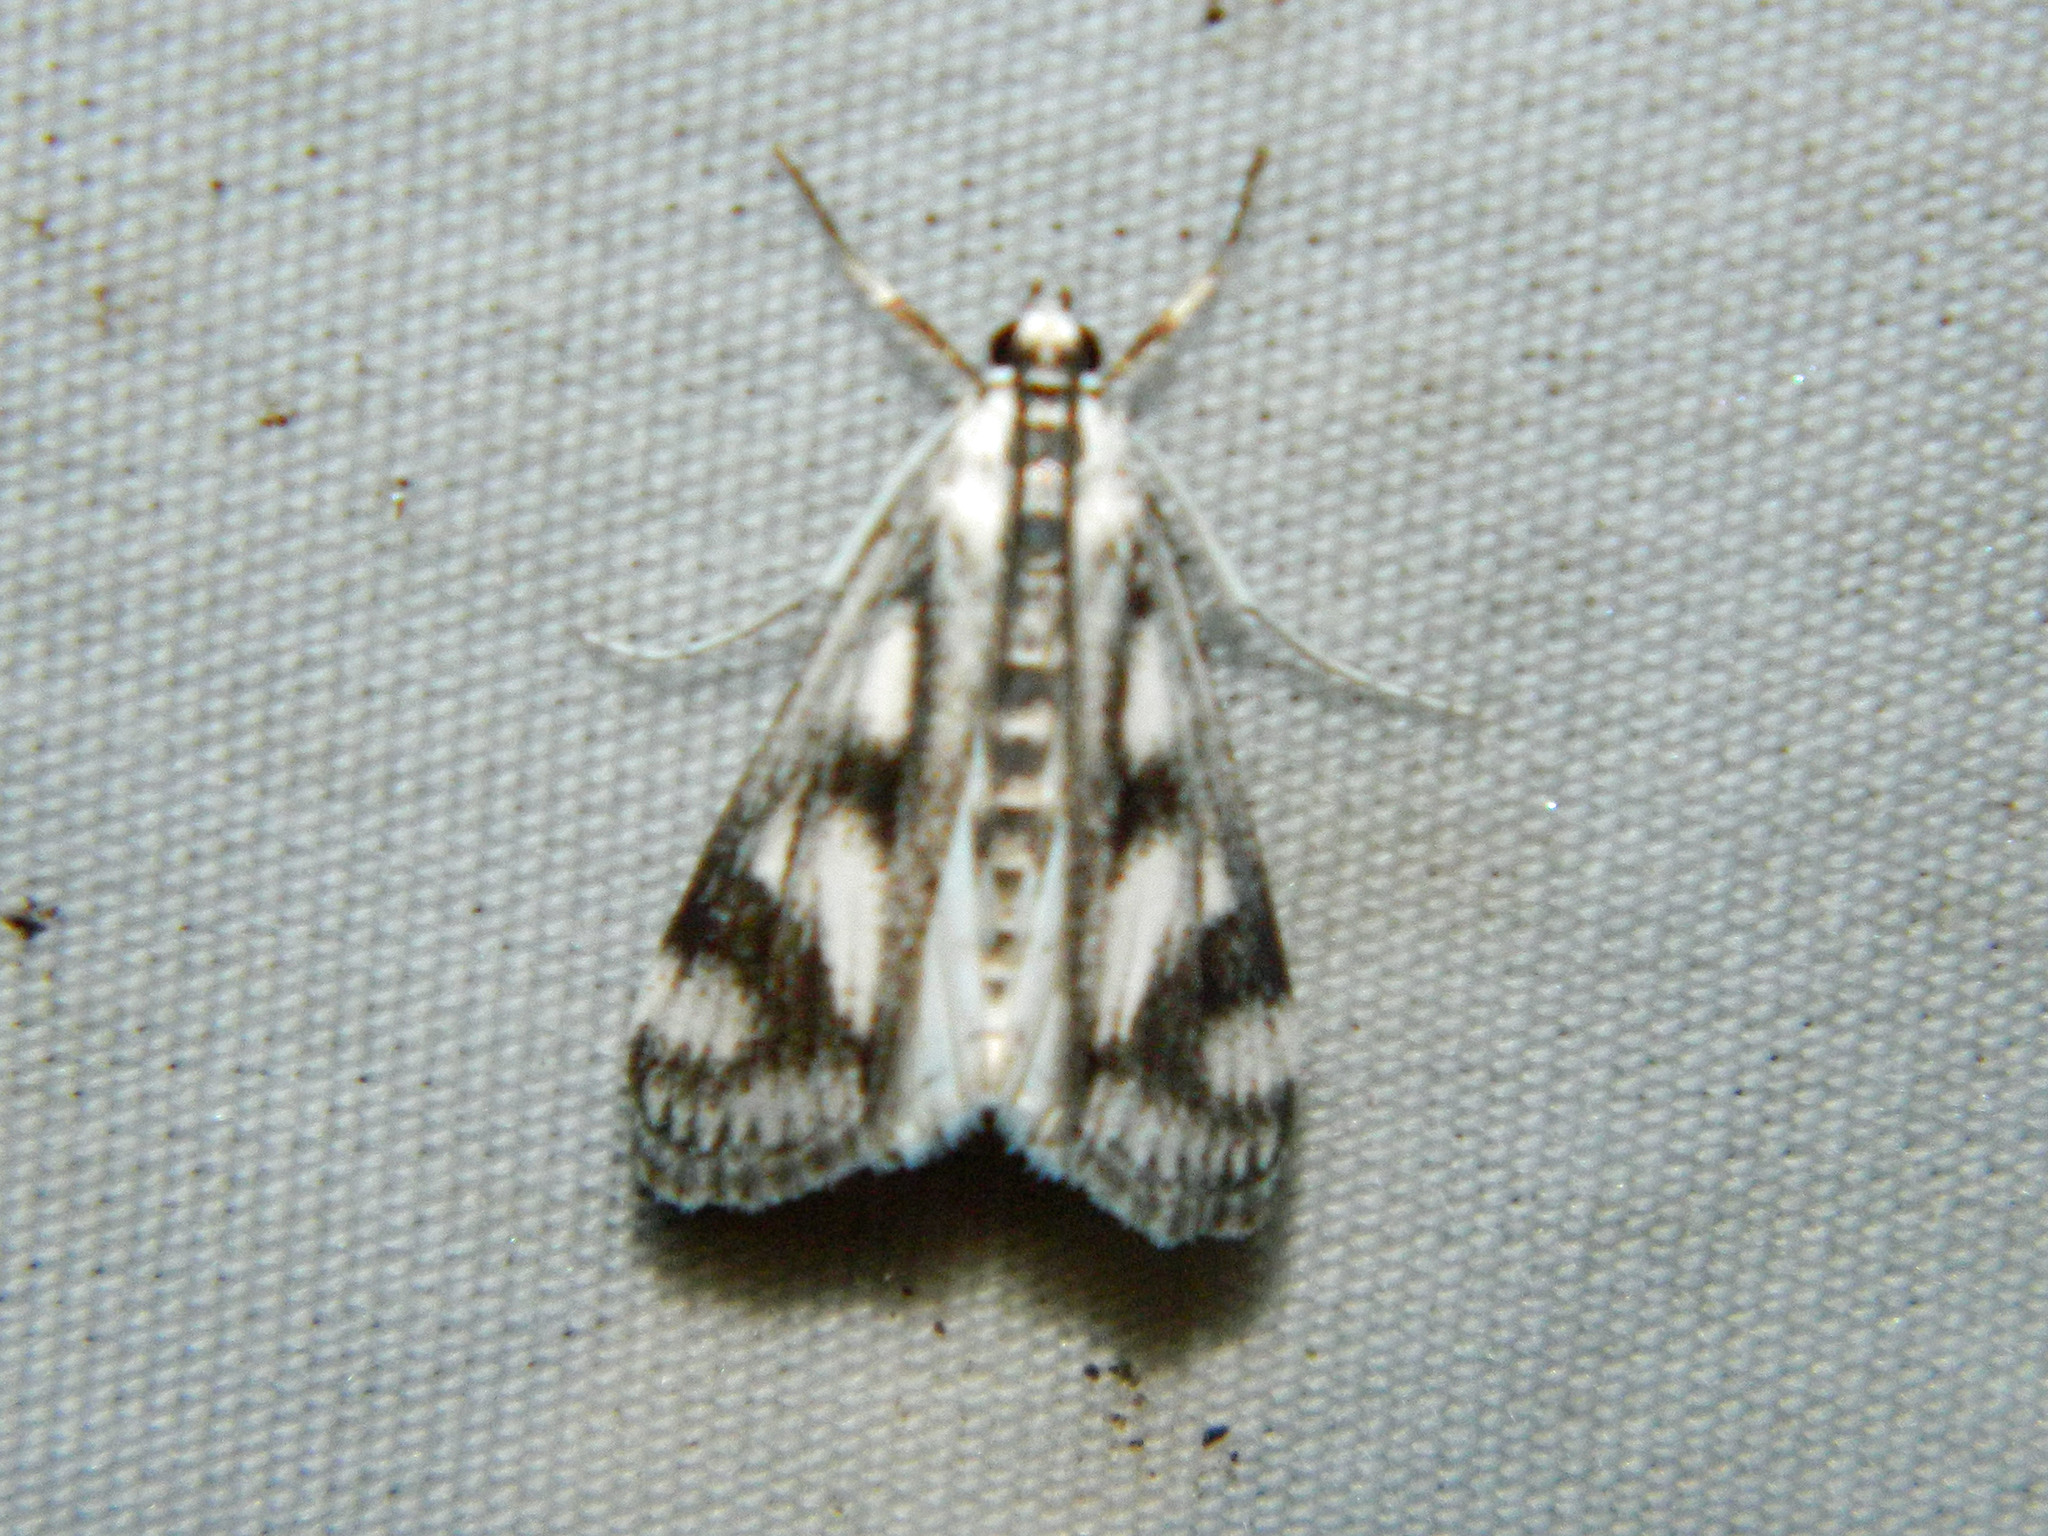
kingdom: Animalia
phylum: Arthropoda
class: Insecta
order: Lepidoptera
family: Crambidae
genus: Parapoynx
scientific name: Parapoynx maculalis
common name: Polymorphic pondweed moth
